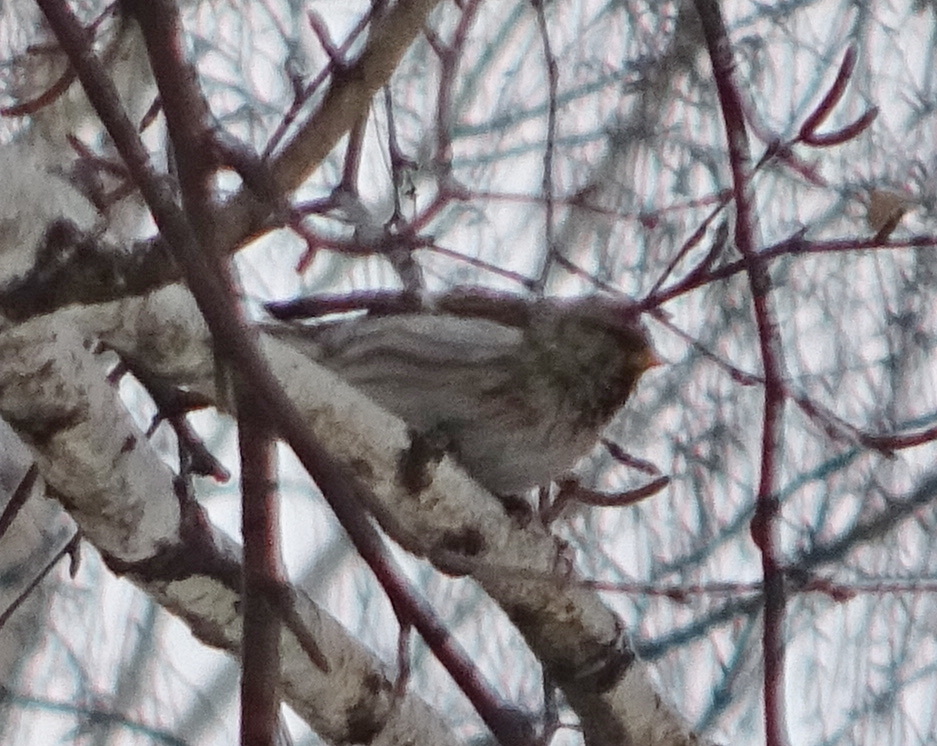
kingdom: Animalia
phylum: Chordata
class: Aves
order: Passeriformes
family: Fringillidae
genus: Acanthis
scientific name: Acanthis flammea
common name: Common redpoll
